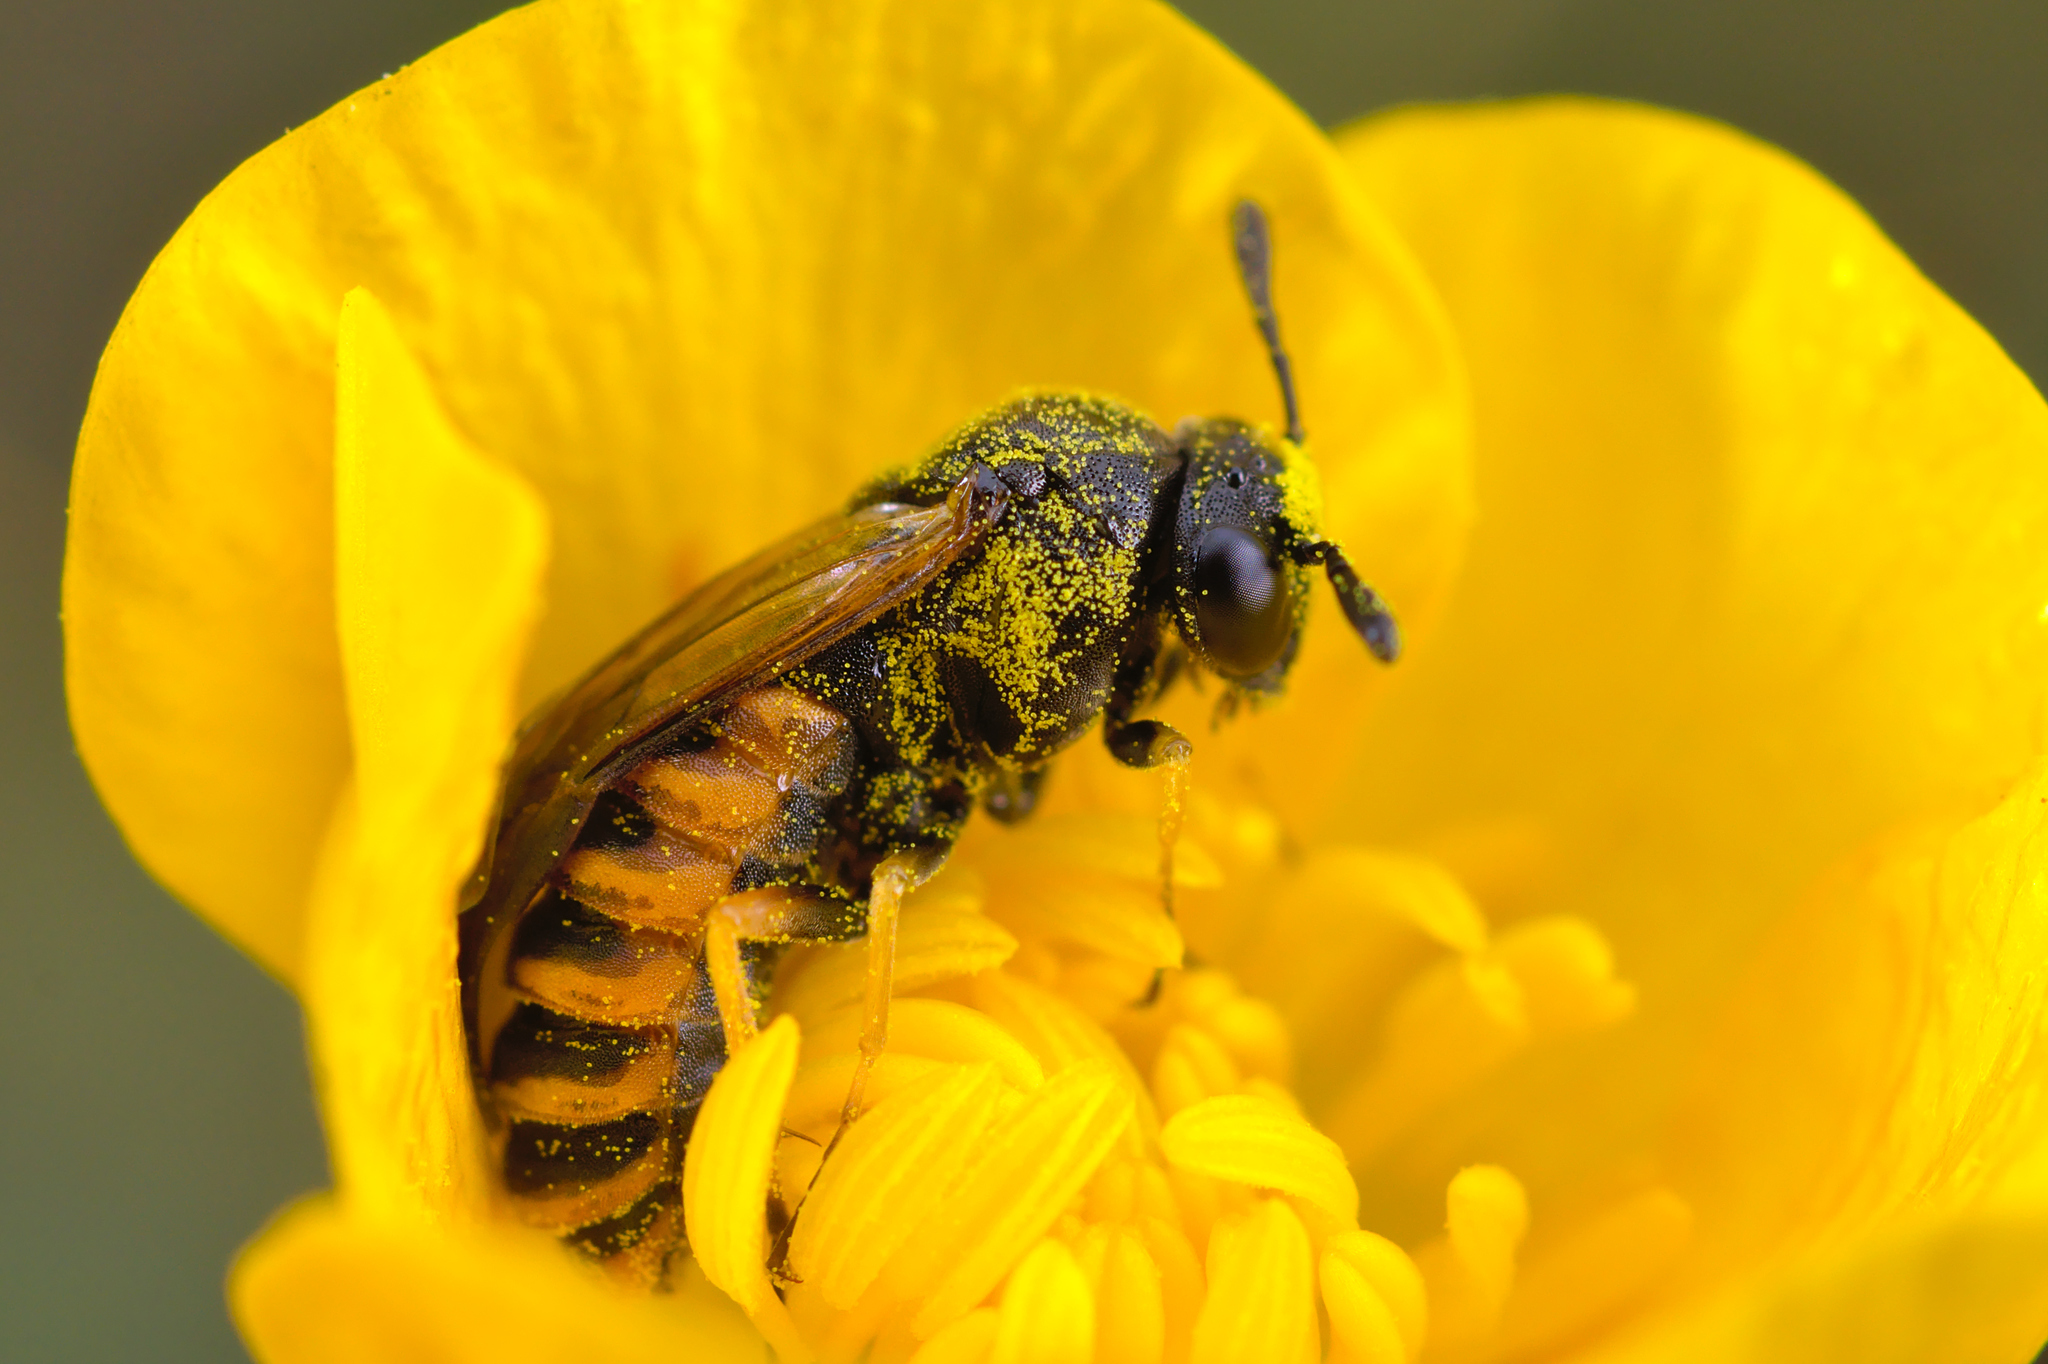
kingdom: Animalia
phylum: Arthropoda
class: Insecta
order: Hymenoptera
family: Cimbicidae
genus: Corynis
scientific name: Corynis crassicornis
